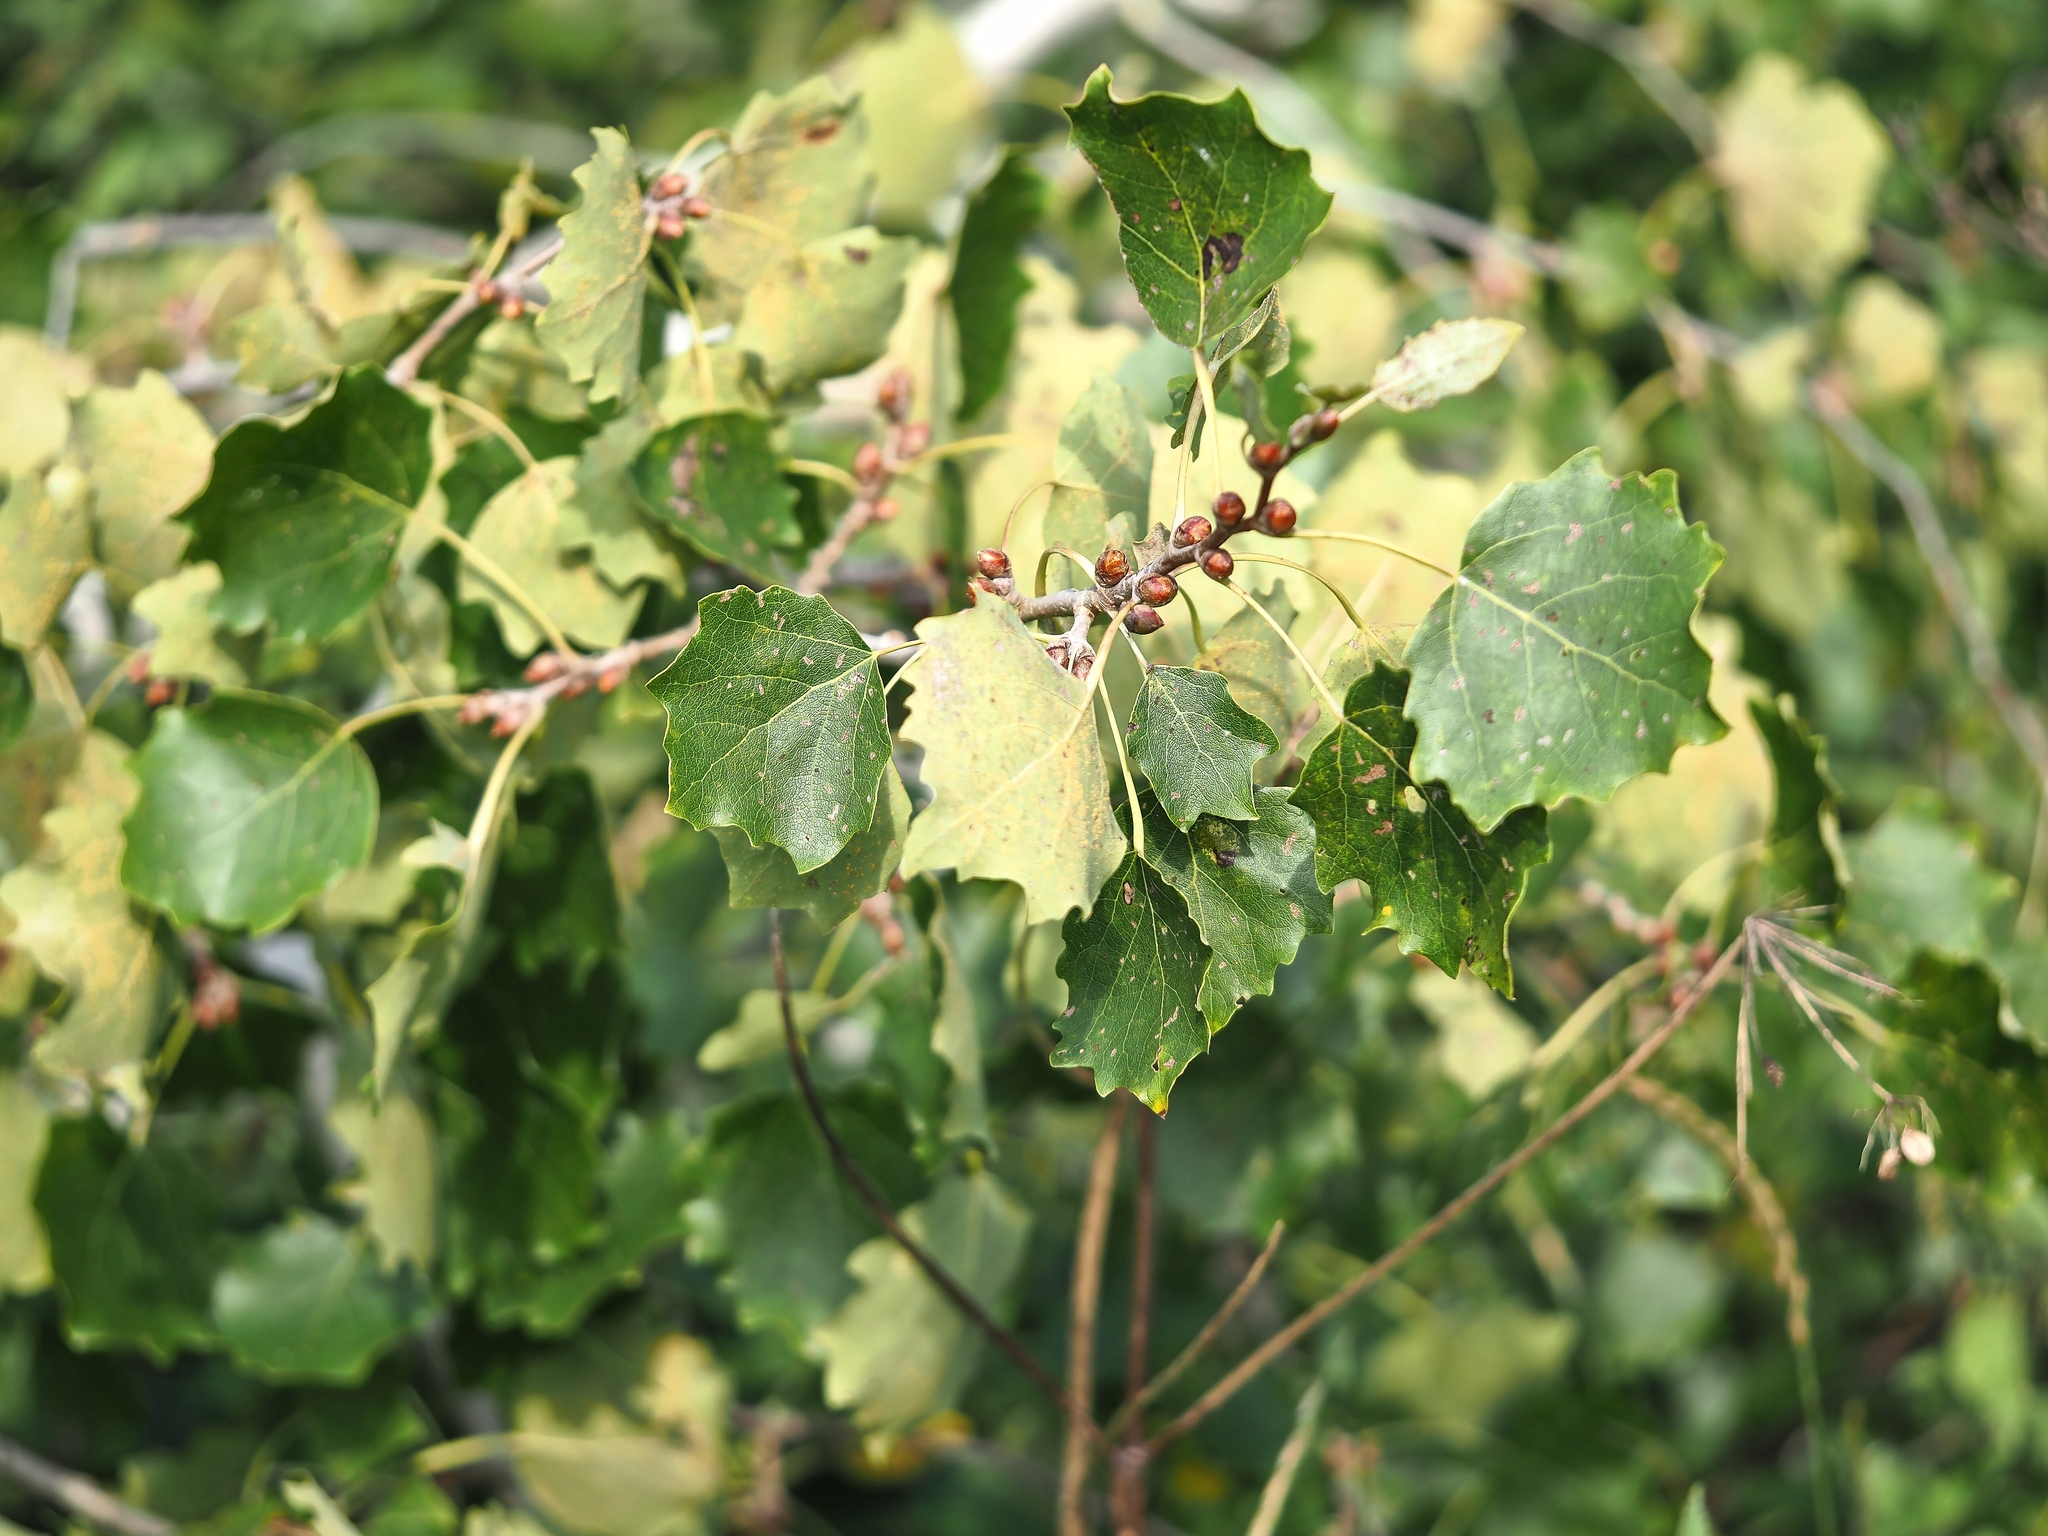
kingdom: Plantae
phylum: Tracheophyta
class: Magnoliopsida
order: Malpighiales
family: Salicaceae
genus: Populus
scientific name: Populus tremula
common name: European aspen
